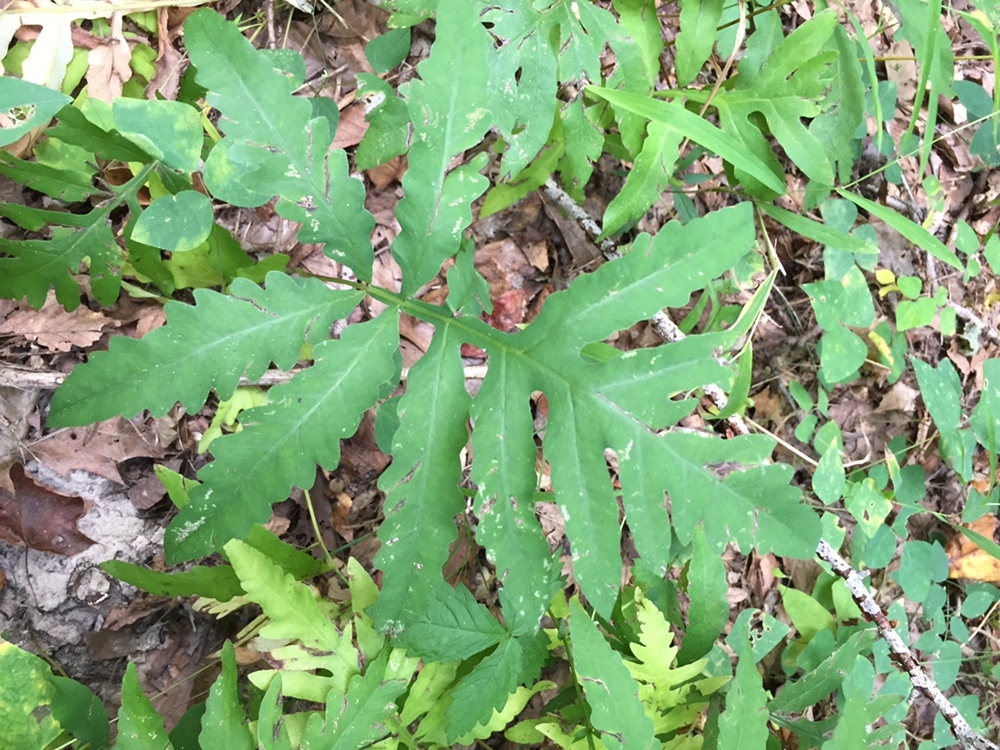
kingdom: Plantae
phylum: Tracheophyta
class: Polypodiopsida
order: Polypodiales
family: Onocleaceae
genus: Onoclea
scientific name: Onoclea sensibilis
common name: Sensitive fern
